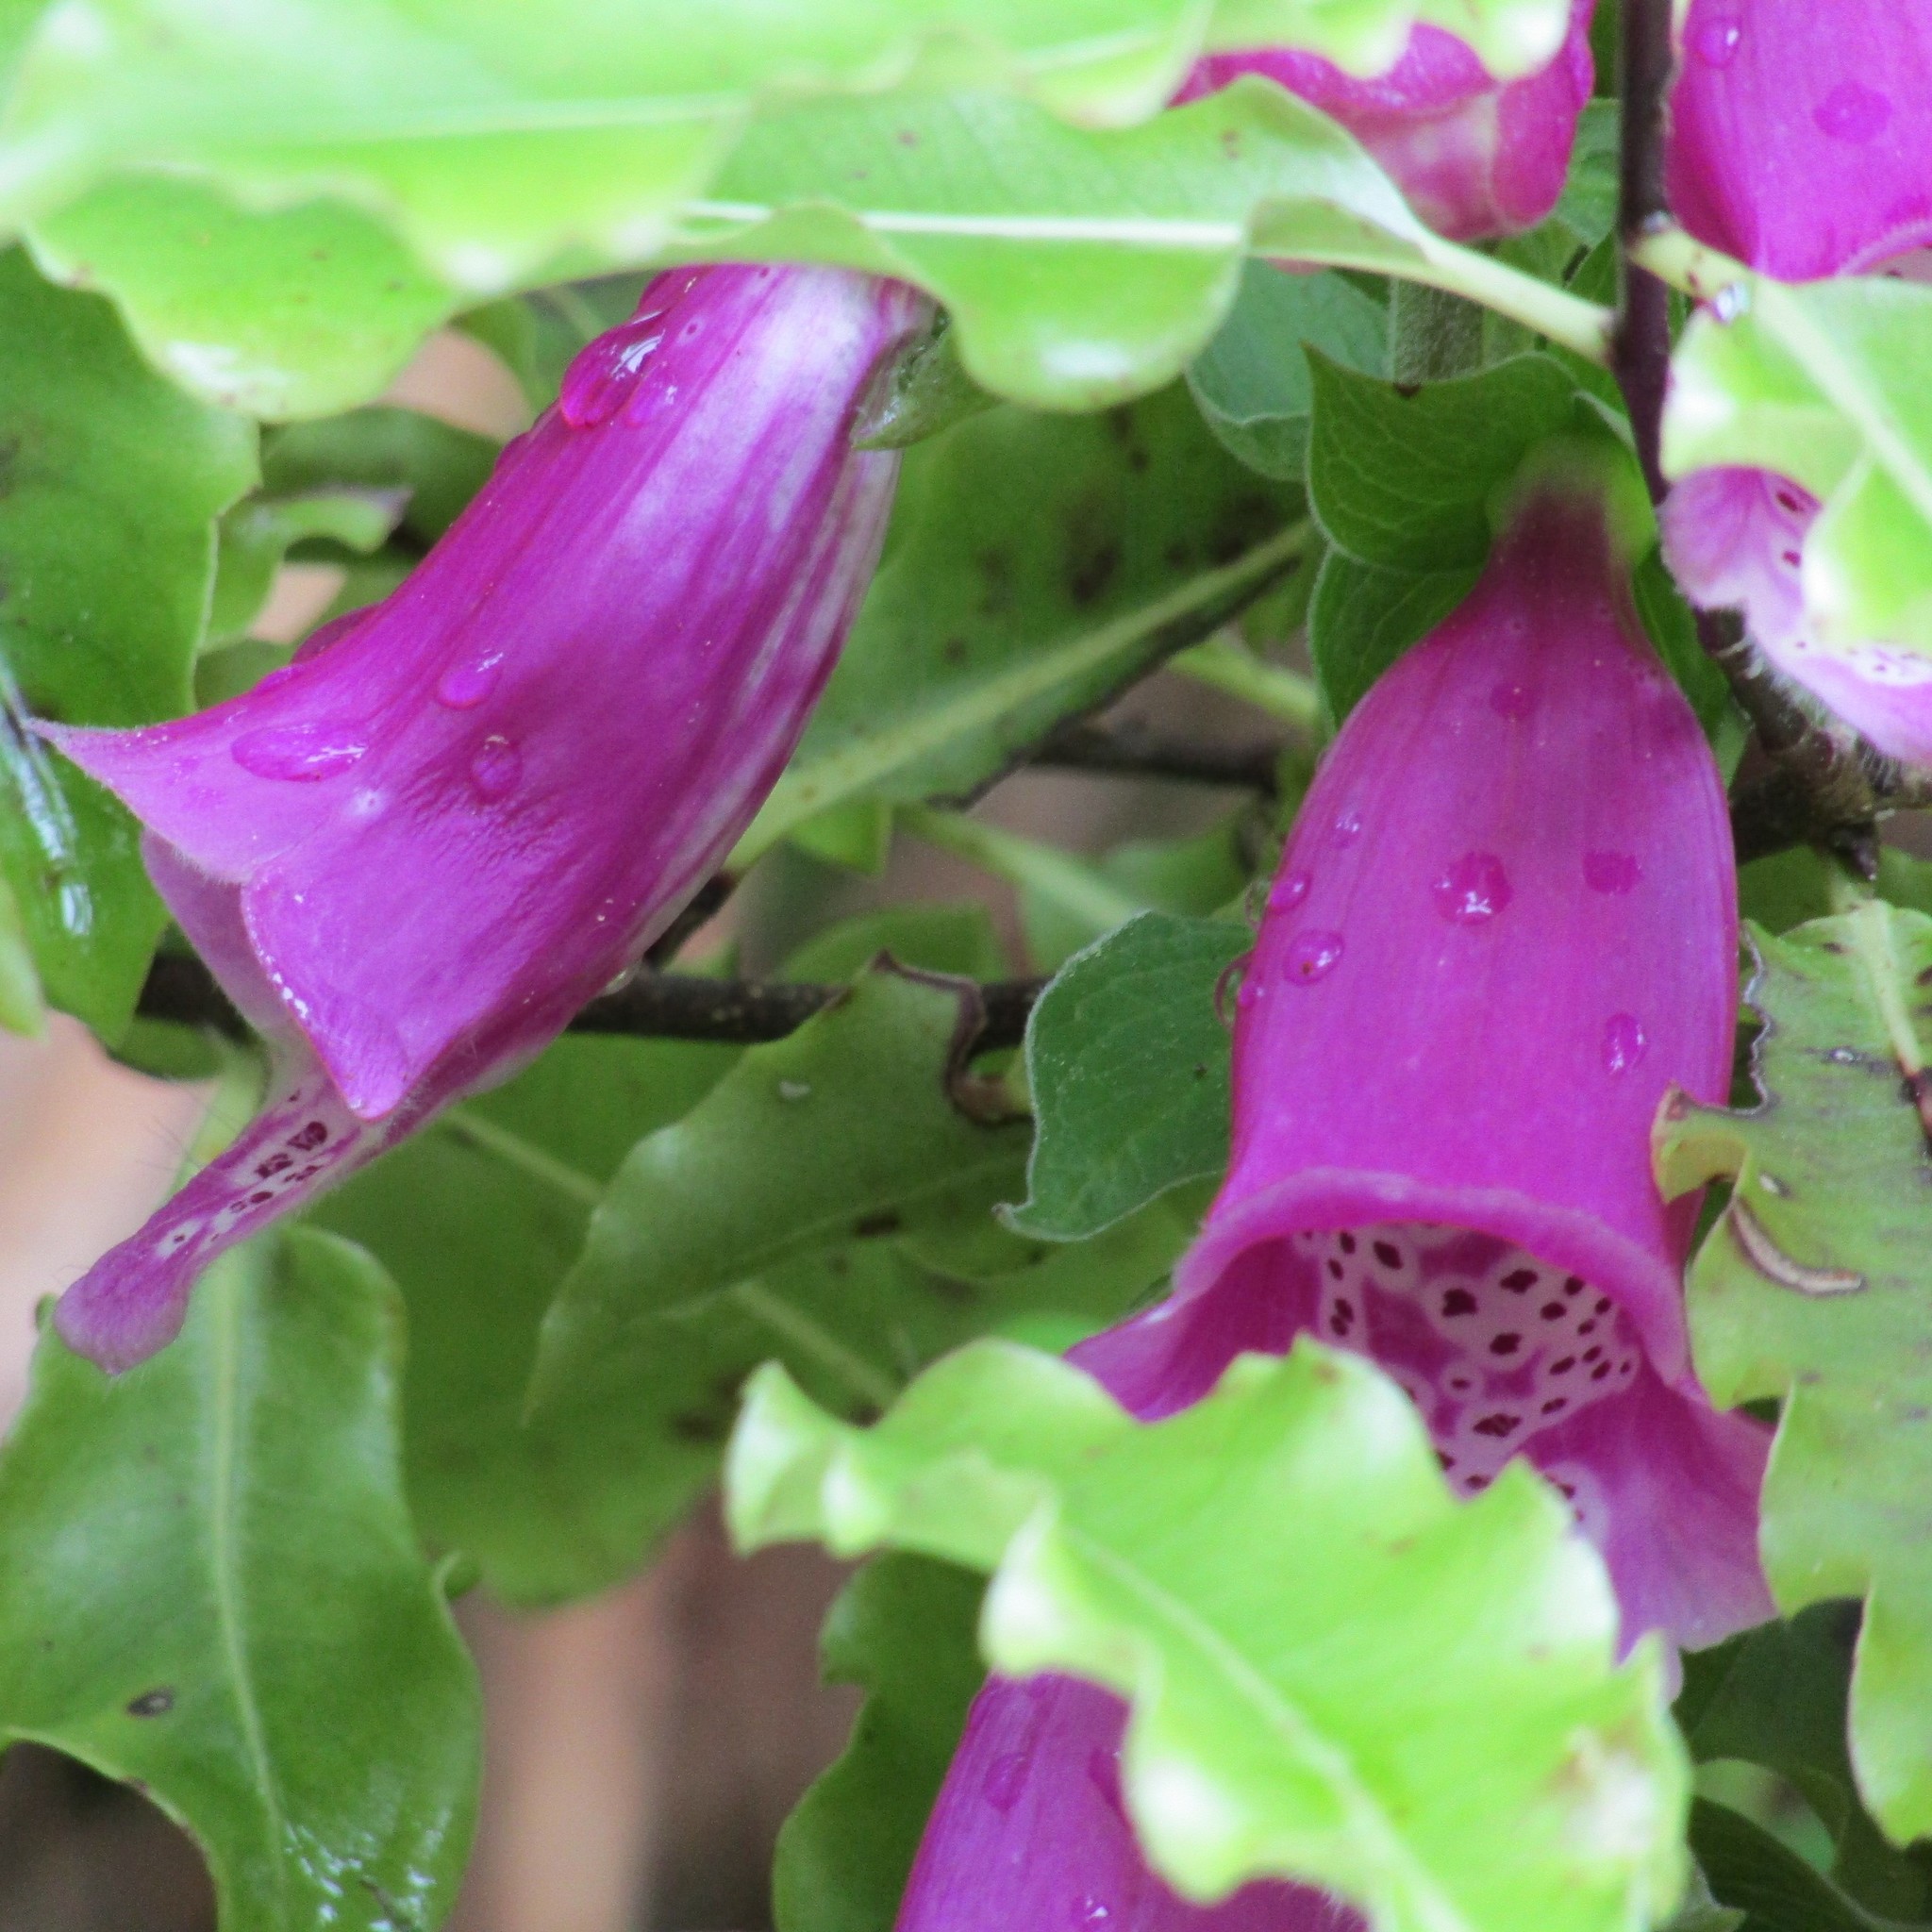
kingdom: Plantae
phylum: Tracheophyta
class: Magnoliopsida
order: Lamiales
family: Plantaginaceae
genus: Digitalis
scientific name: Digitalis purpurea
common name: Foxglove
